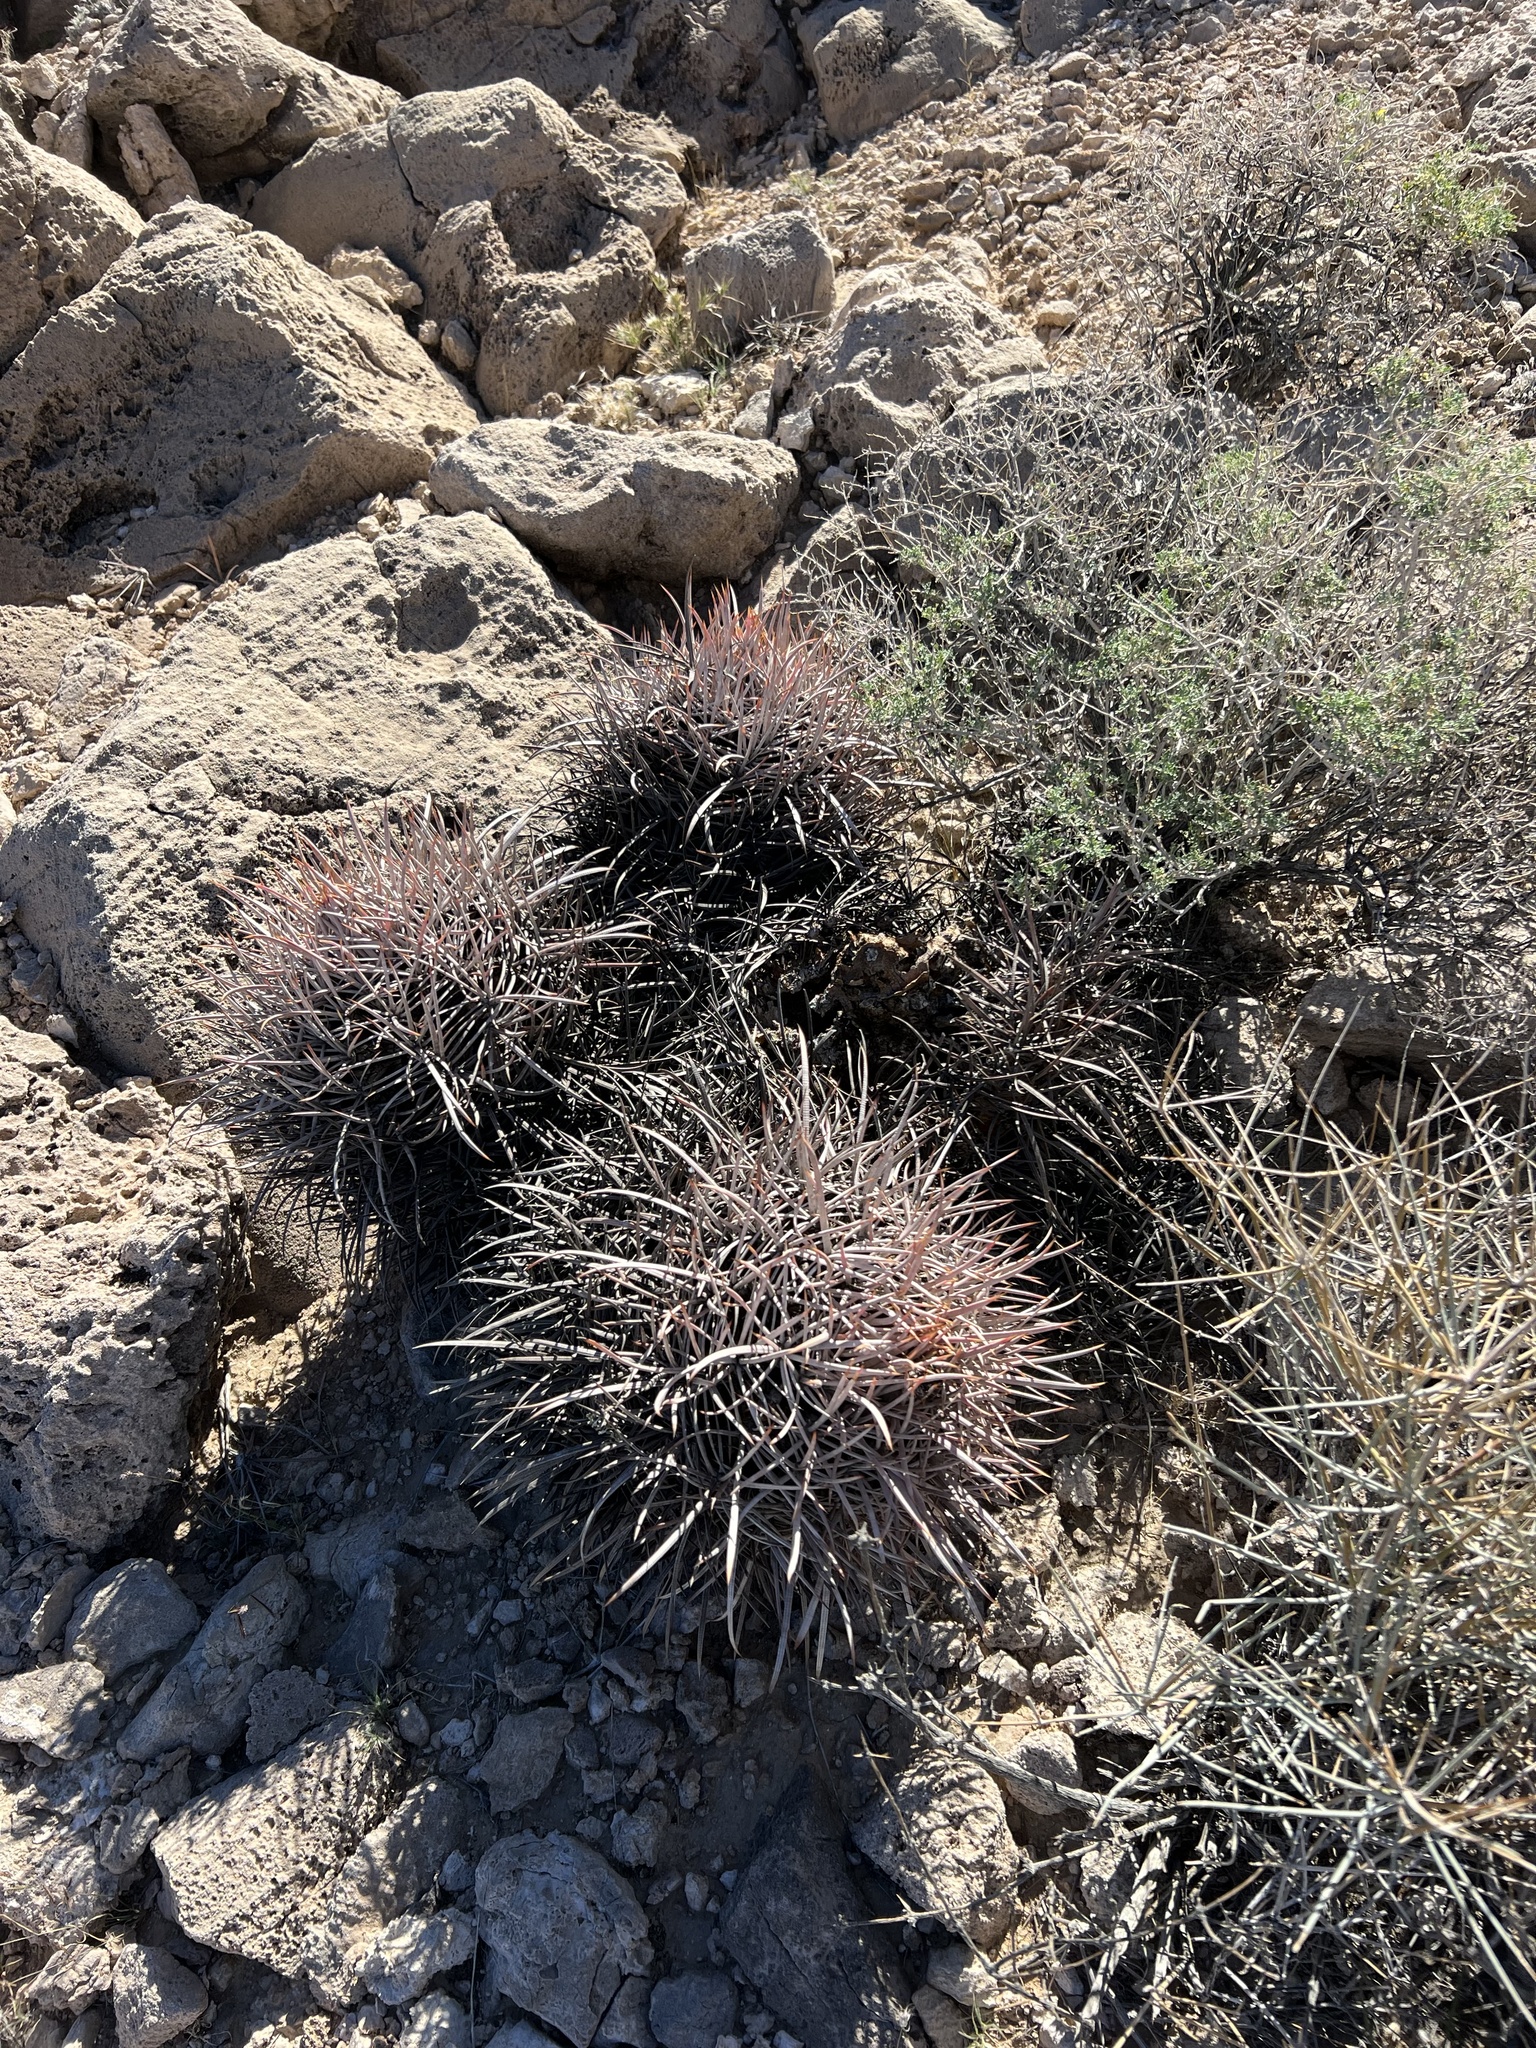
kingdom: Plantae
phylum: Tracheophyta
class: Magnoliopsida
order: Caryophyllales
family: Cactaceae
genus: Echinocactus
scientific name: Echinocactus polycephalus
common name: Cottontop cactus
